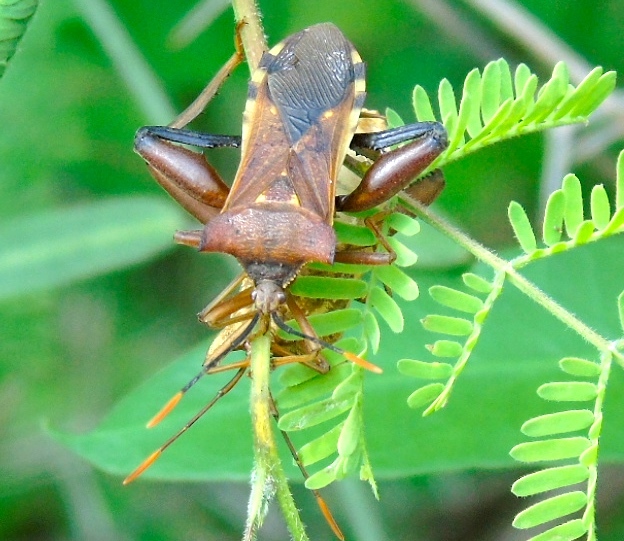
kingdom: Animalia
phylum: Arthropoda
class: Insecta
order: Hemiptera
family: Coreidae
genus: Mozena
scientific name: Mozena
